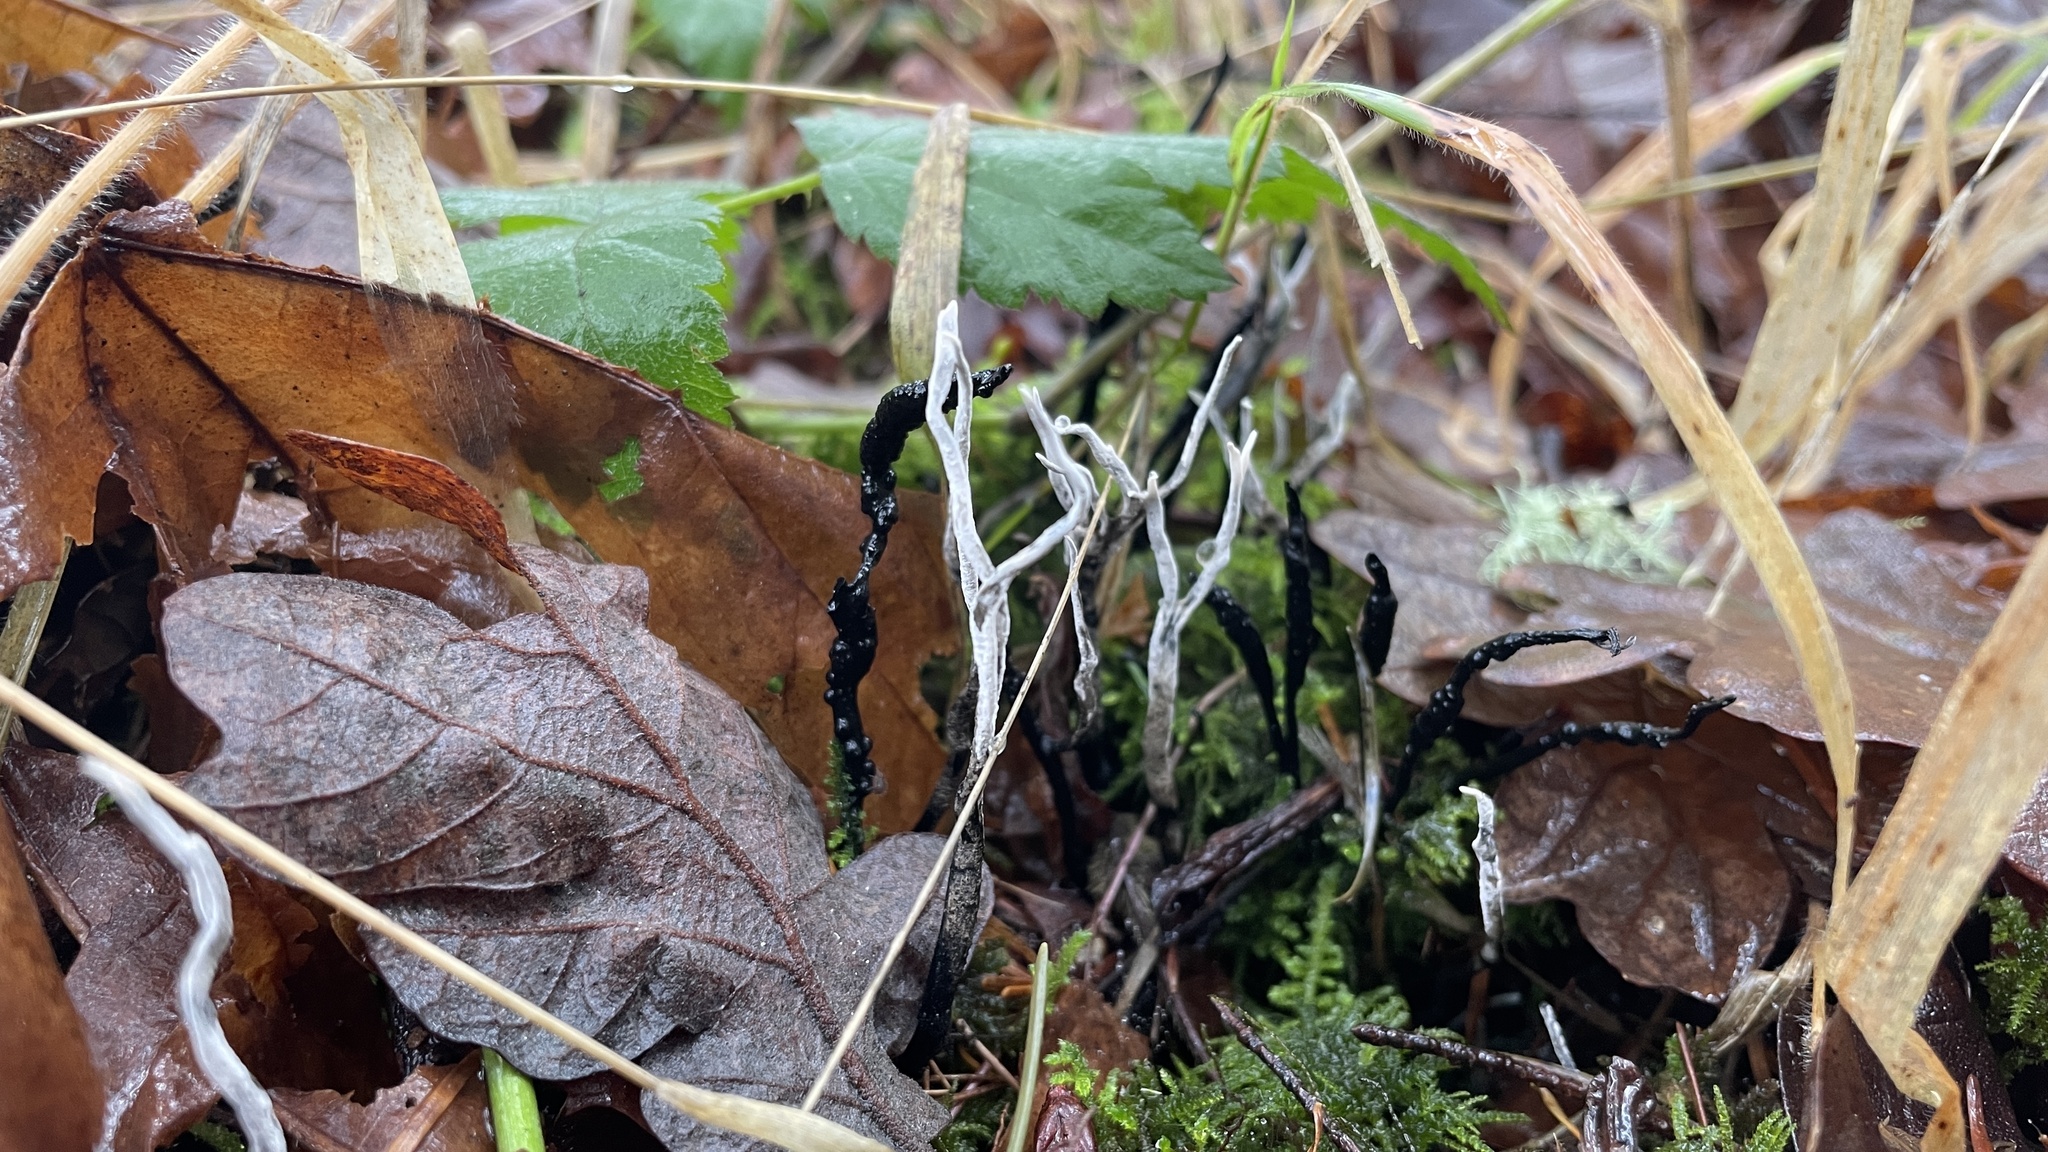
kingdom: Fungi
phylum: Ascomycota
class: Sordariomycetes
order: Xylariales
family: Xylariaceae
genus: Xylaria
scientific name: Xylaria hypoxylon
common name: Candle-snuff fungus
